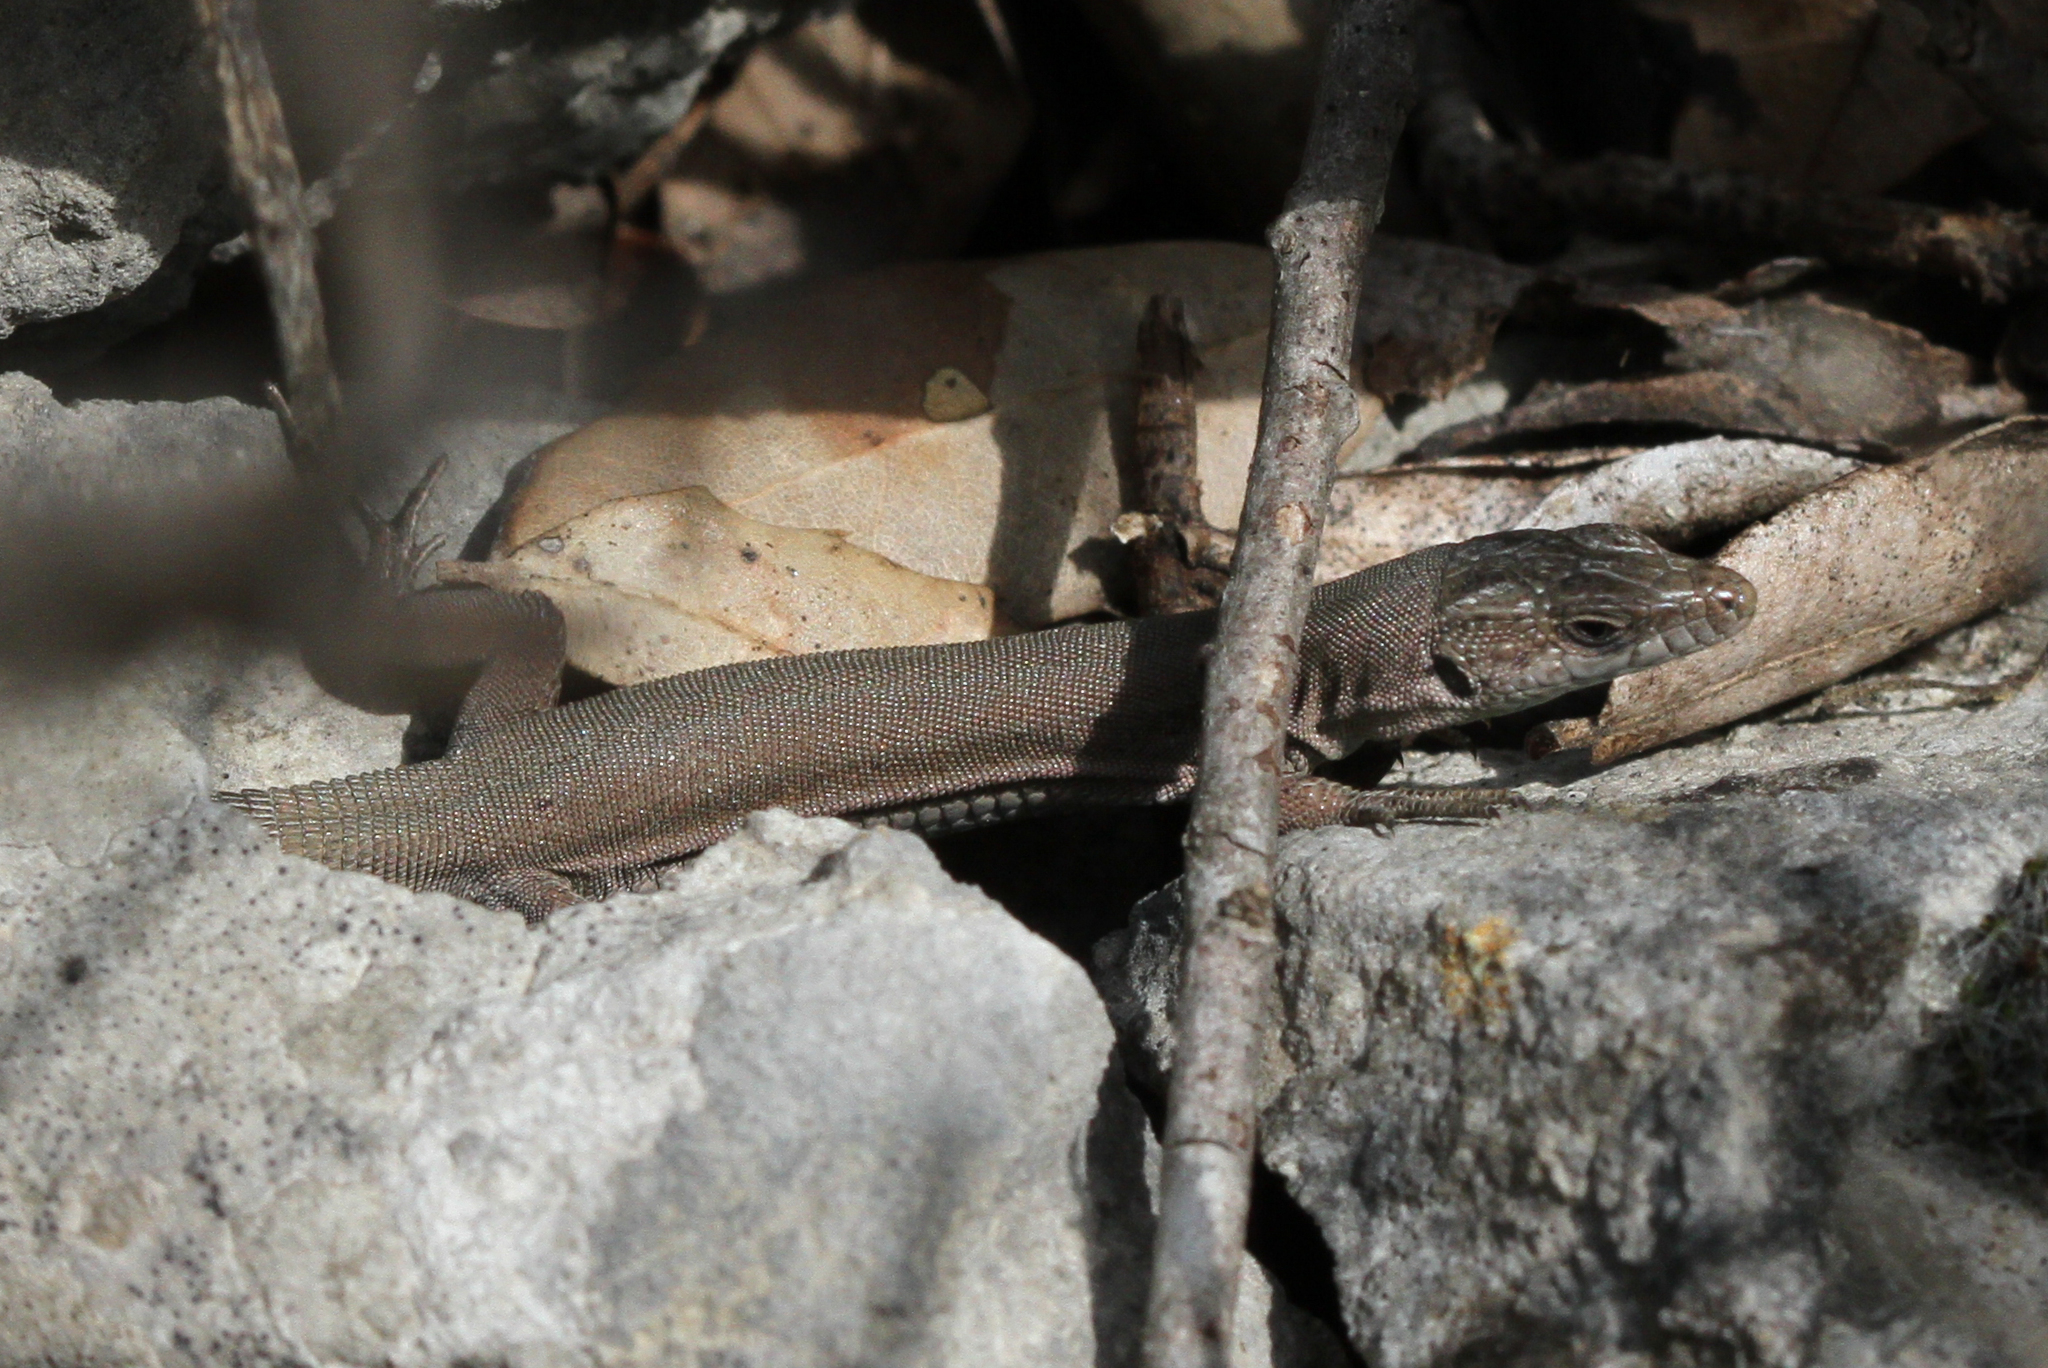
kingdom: Animalia
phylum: Chordata
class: Squamata
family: Lacertidae
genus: Podarcis
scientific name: Podarcis liolepis
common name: Catalonian wall lizard
